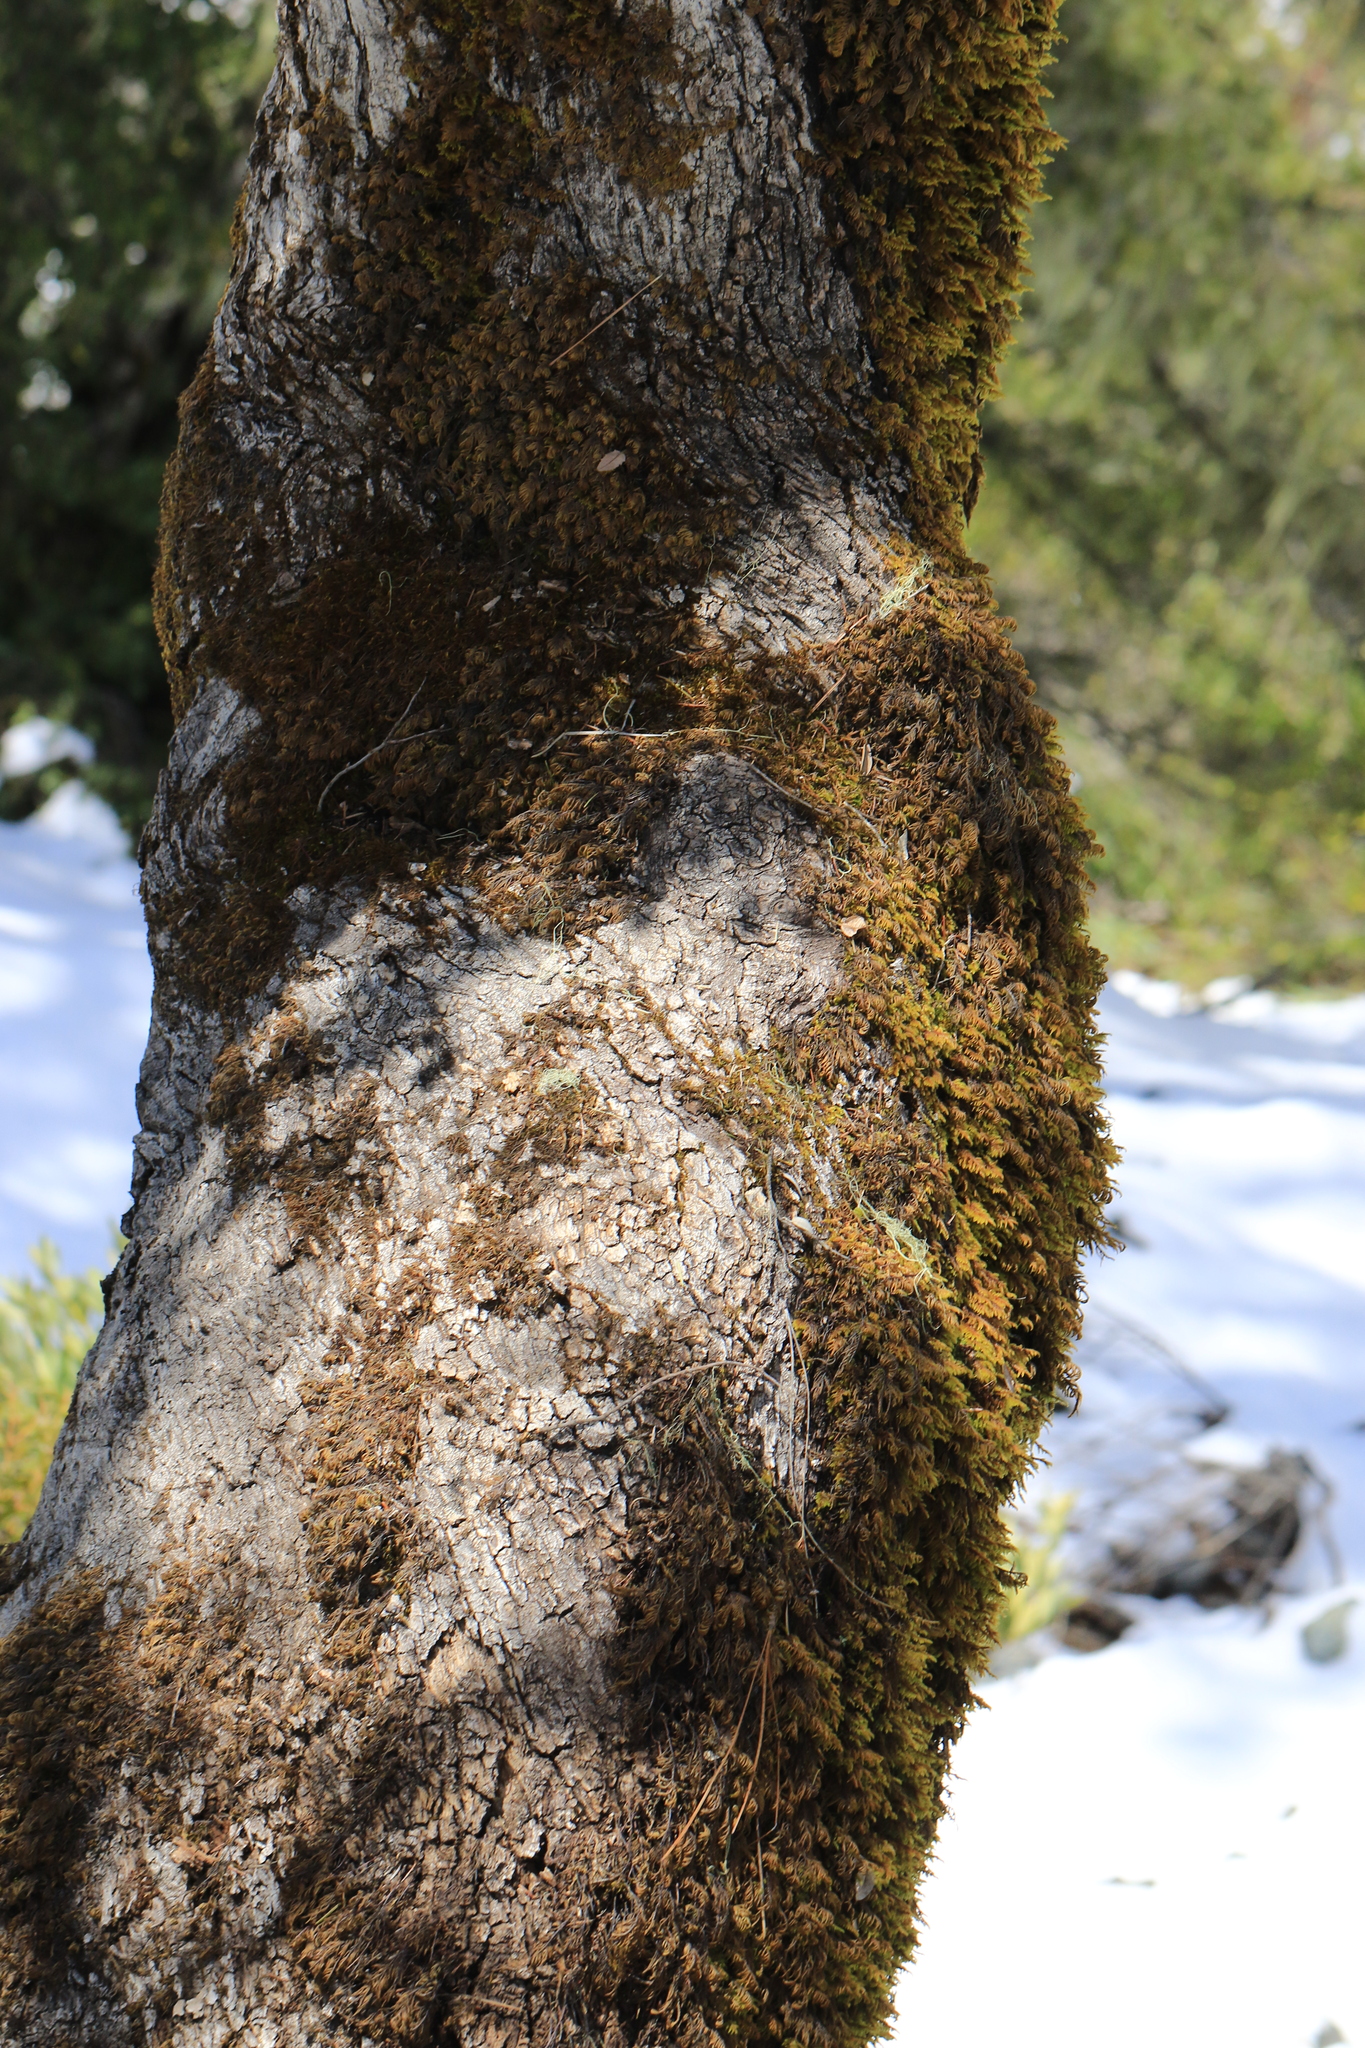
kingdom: Plantae
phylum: Tracheophyta
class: Magnoliopsida
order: Fagales
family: Fagaceae
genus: Quercus
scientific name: Quercus chrysolepis
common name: Canyon live oak
